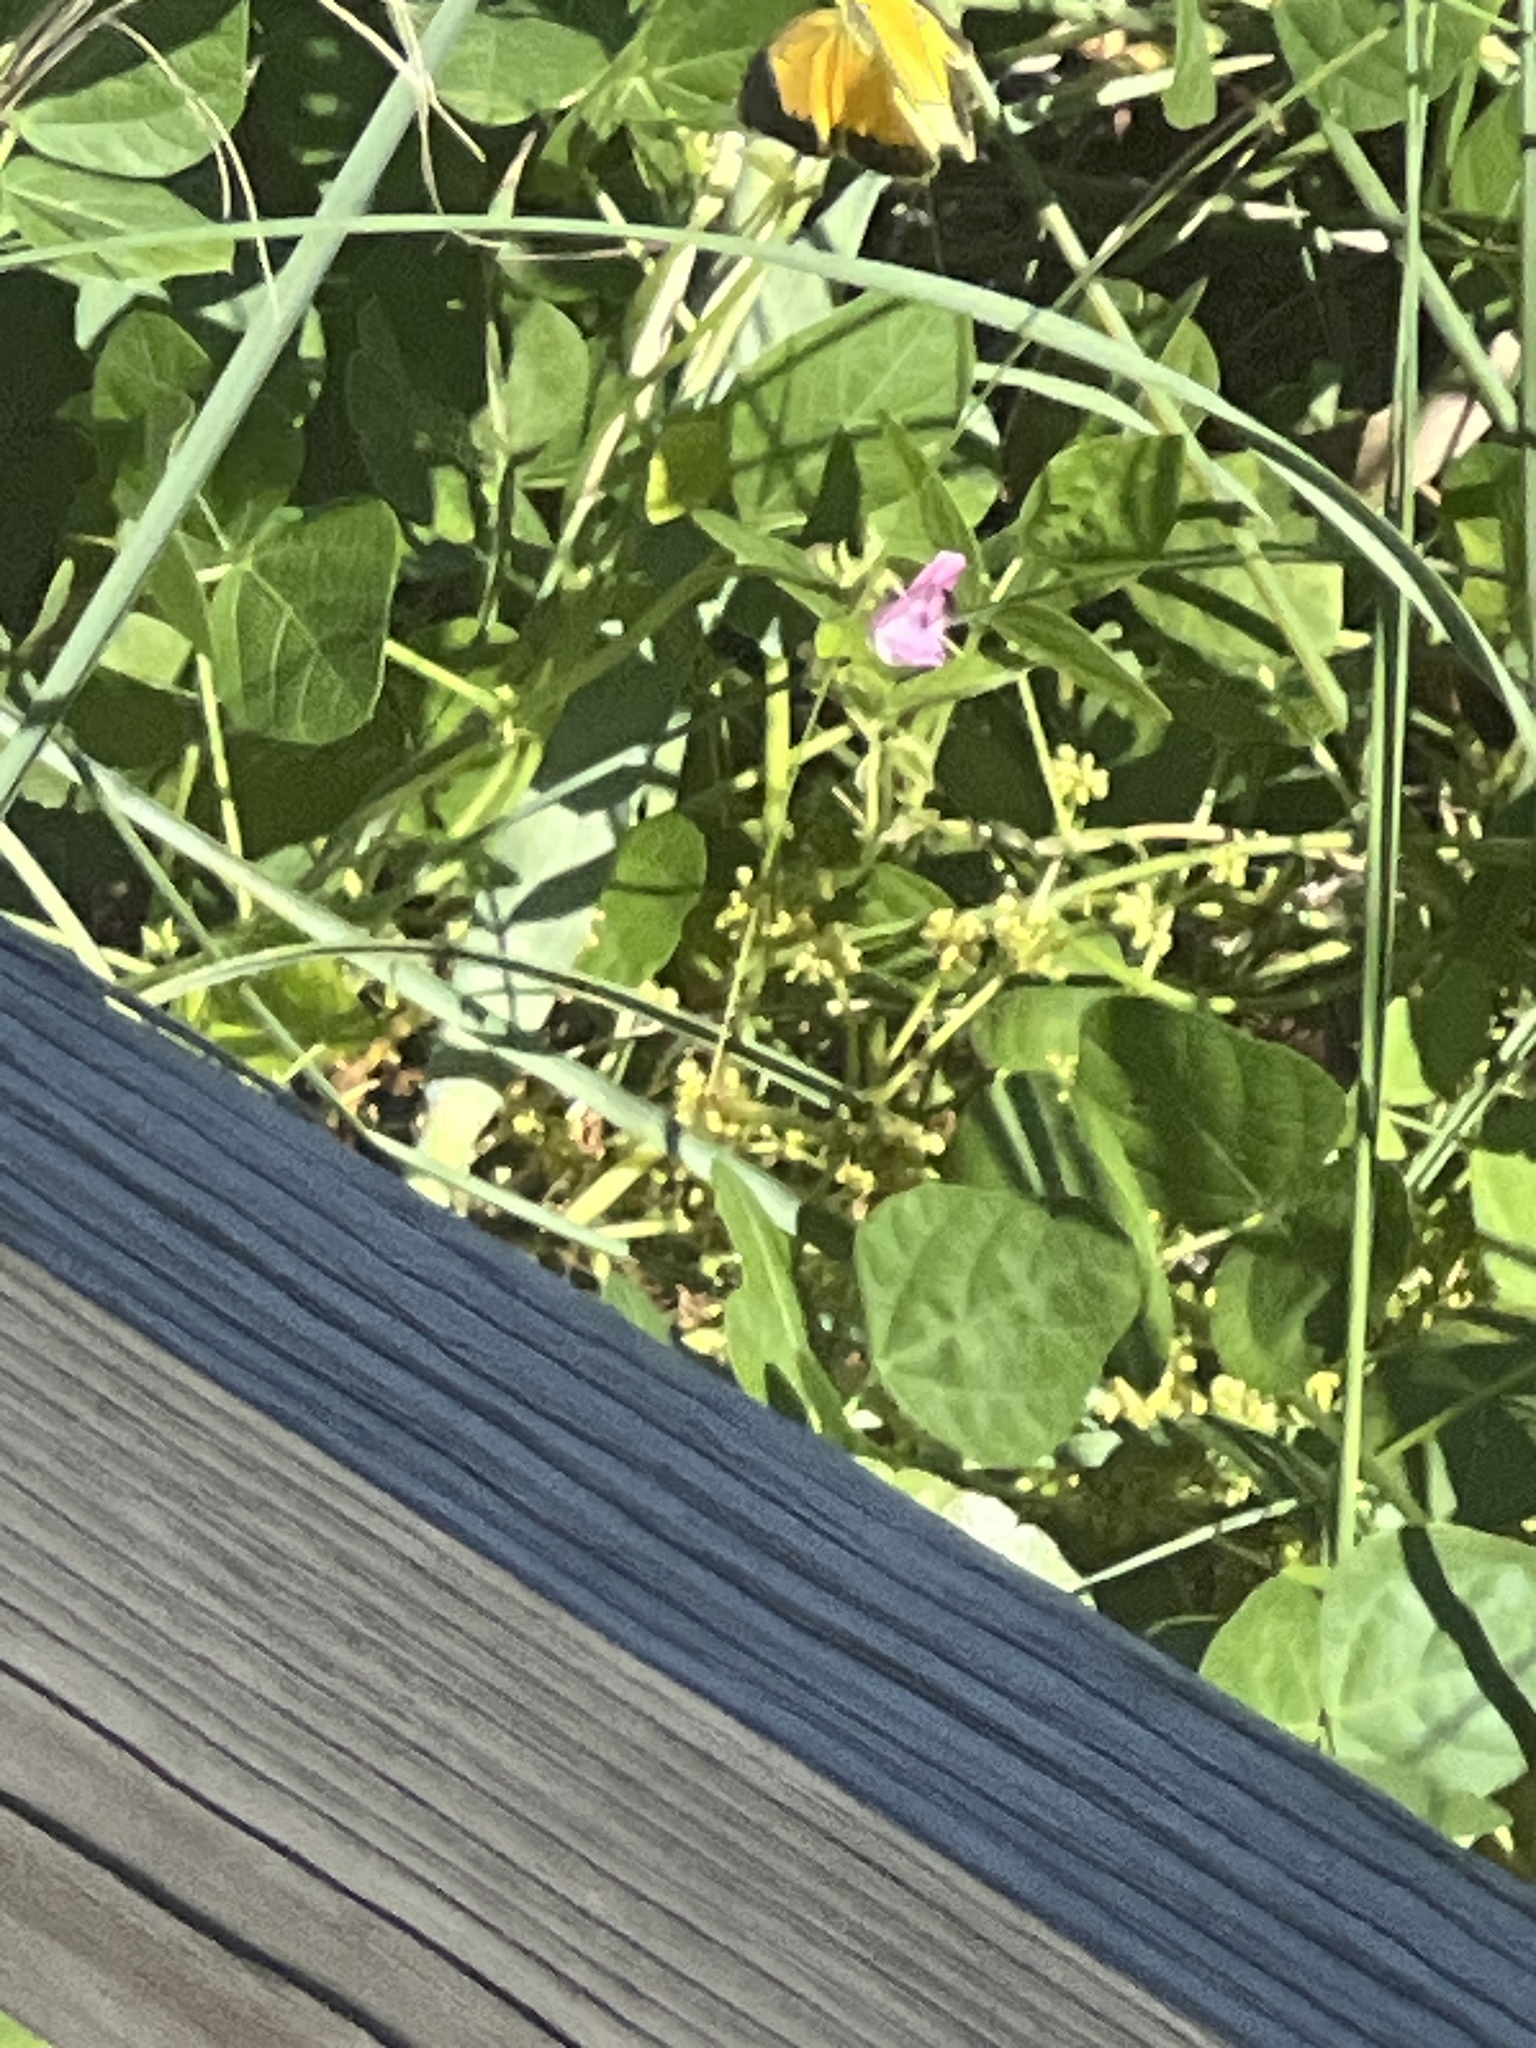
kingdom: Animalia
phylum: Arthropoda
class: Insecta
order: Lepidoptera
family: Pieridae
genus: Abaeis
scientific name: Abaeis nicippe
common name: Sleepy orange
